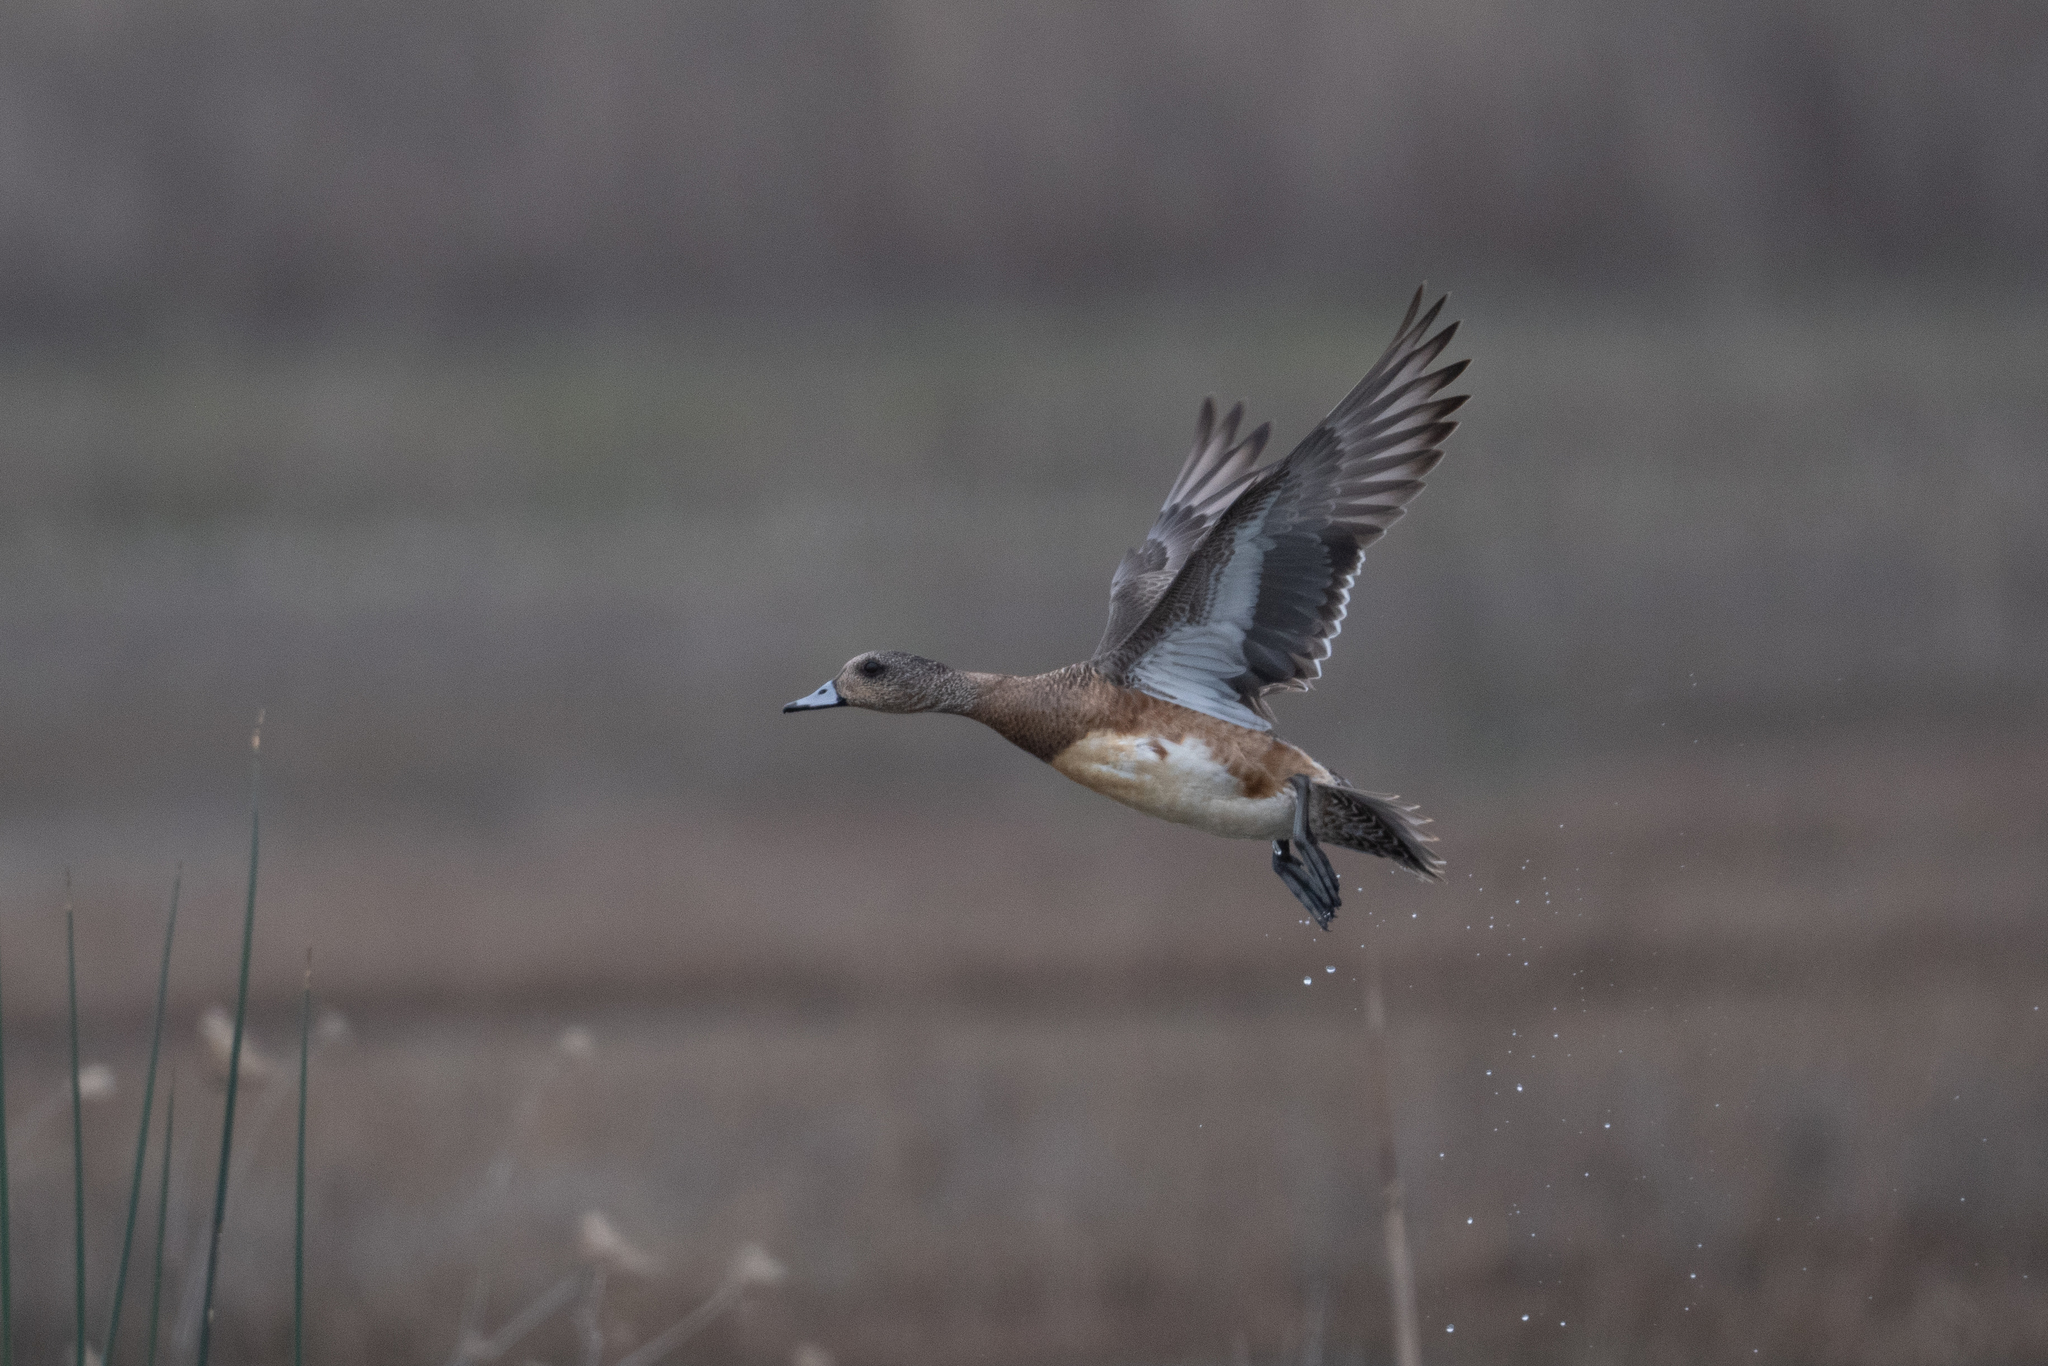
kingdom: Animalia
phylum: Chordata
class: Aves
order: Anseriformes
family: Anatidae
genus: Mareca
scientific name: Mareca americana
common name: American wigeon
